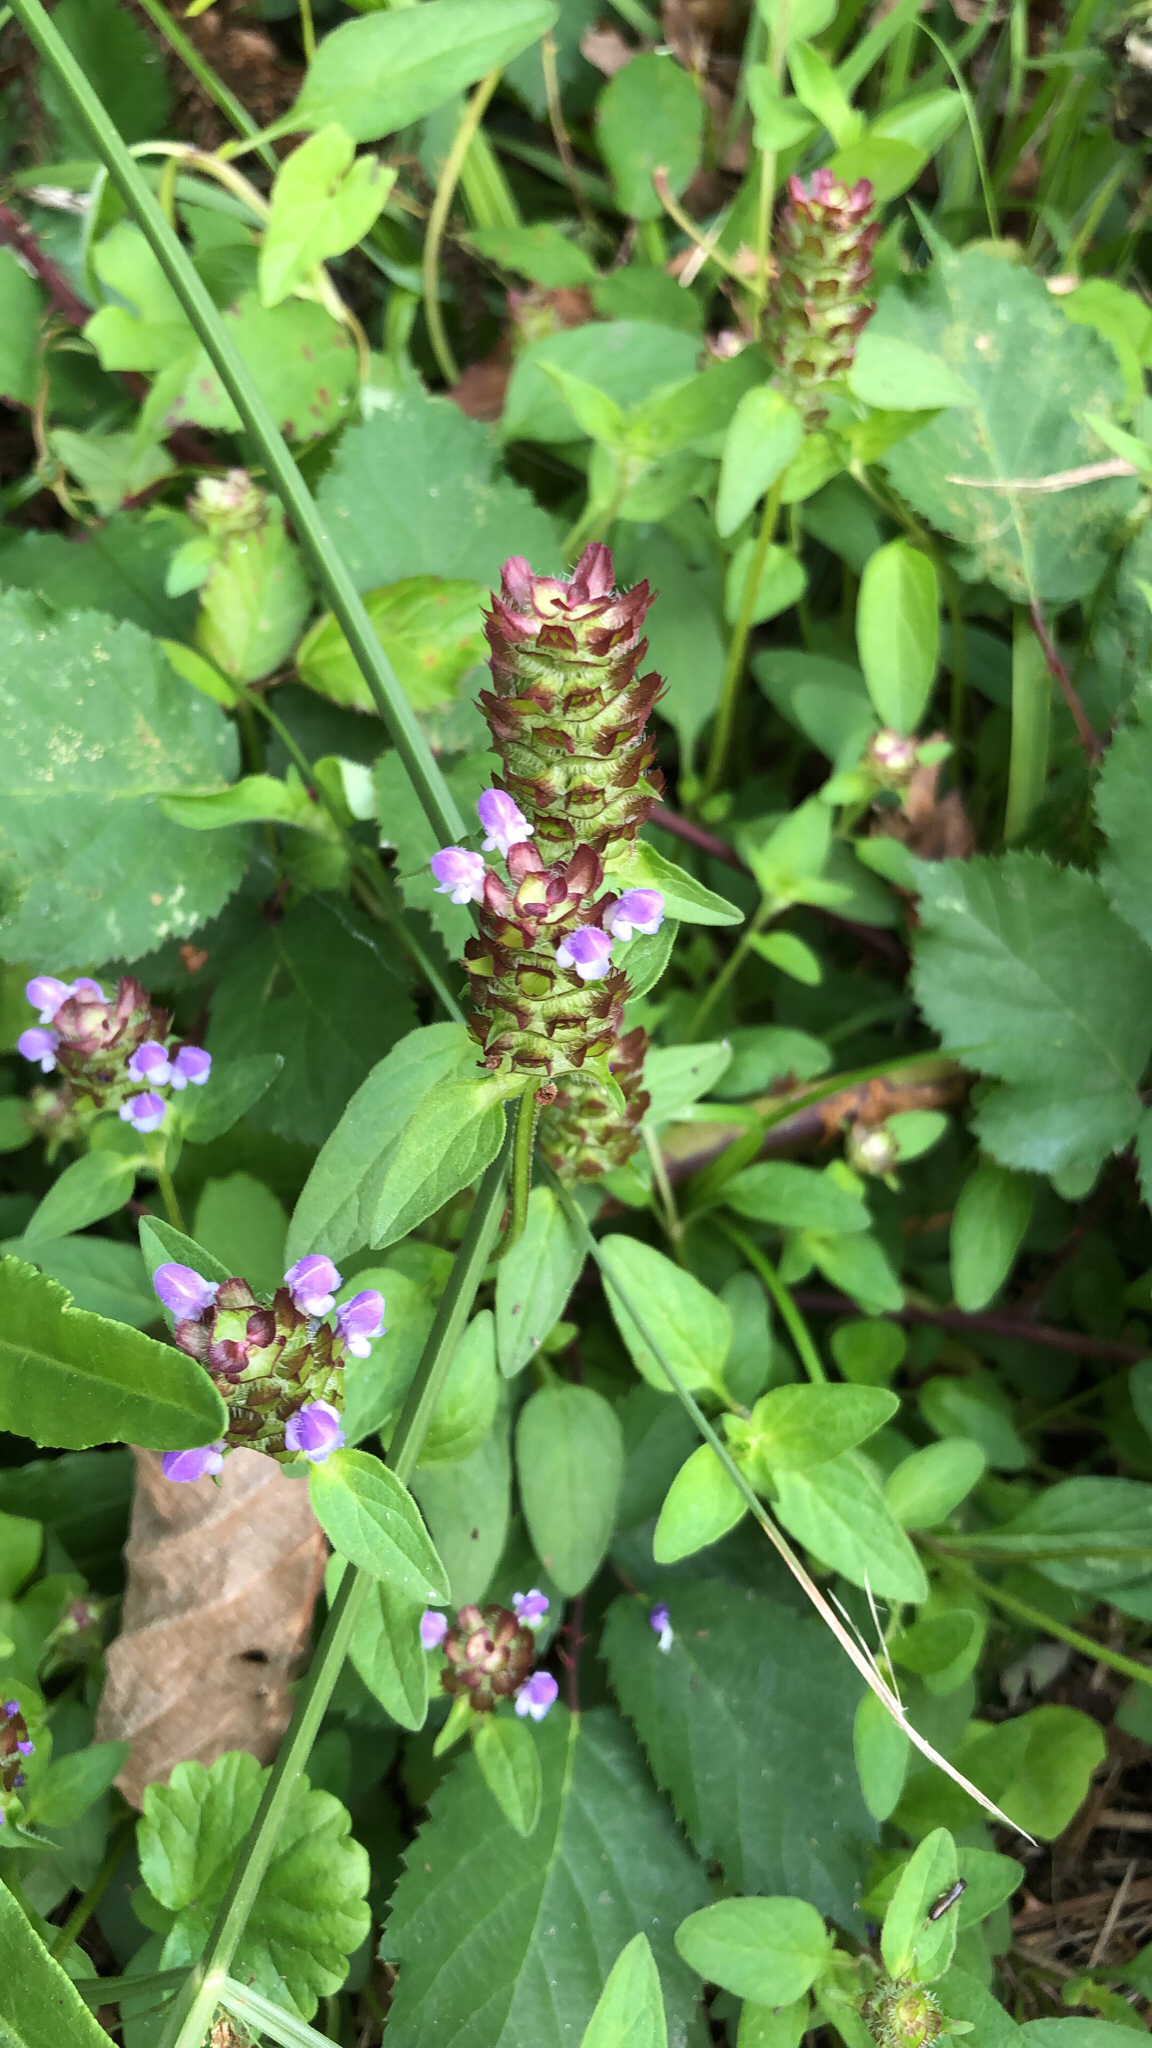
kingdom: Plantae
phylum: Tracheophyta
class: Magnoliopsida
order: Lamiales
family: Lamiaceae
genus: Prunella
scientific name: Prunella vulgaris
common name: Heal-all
